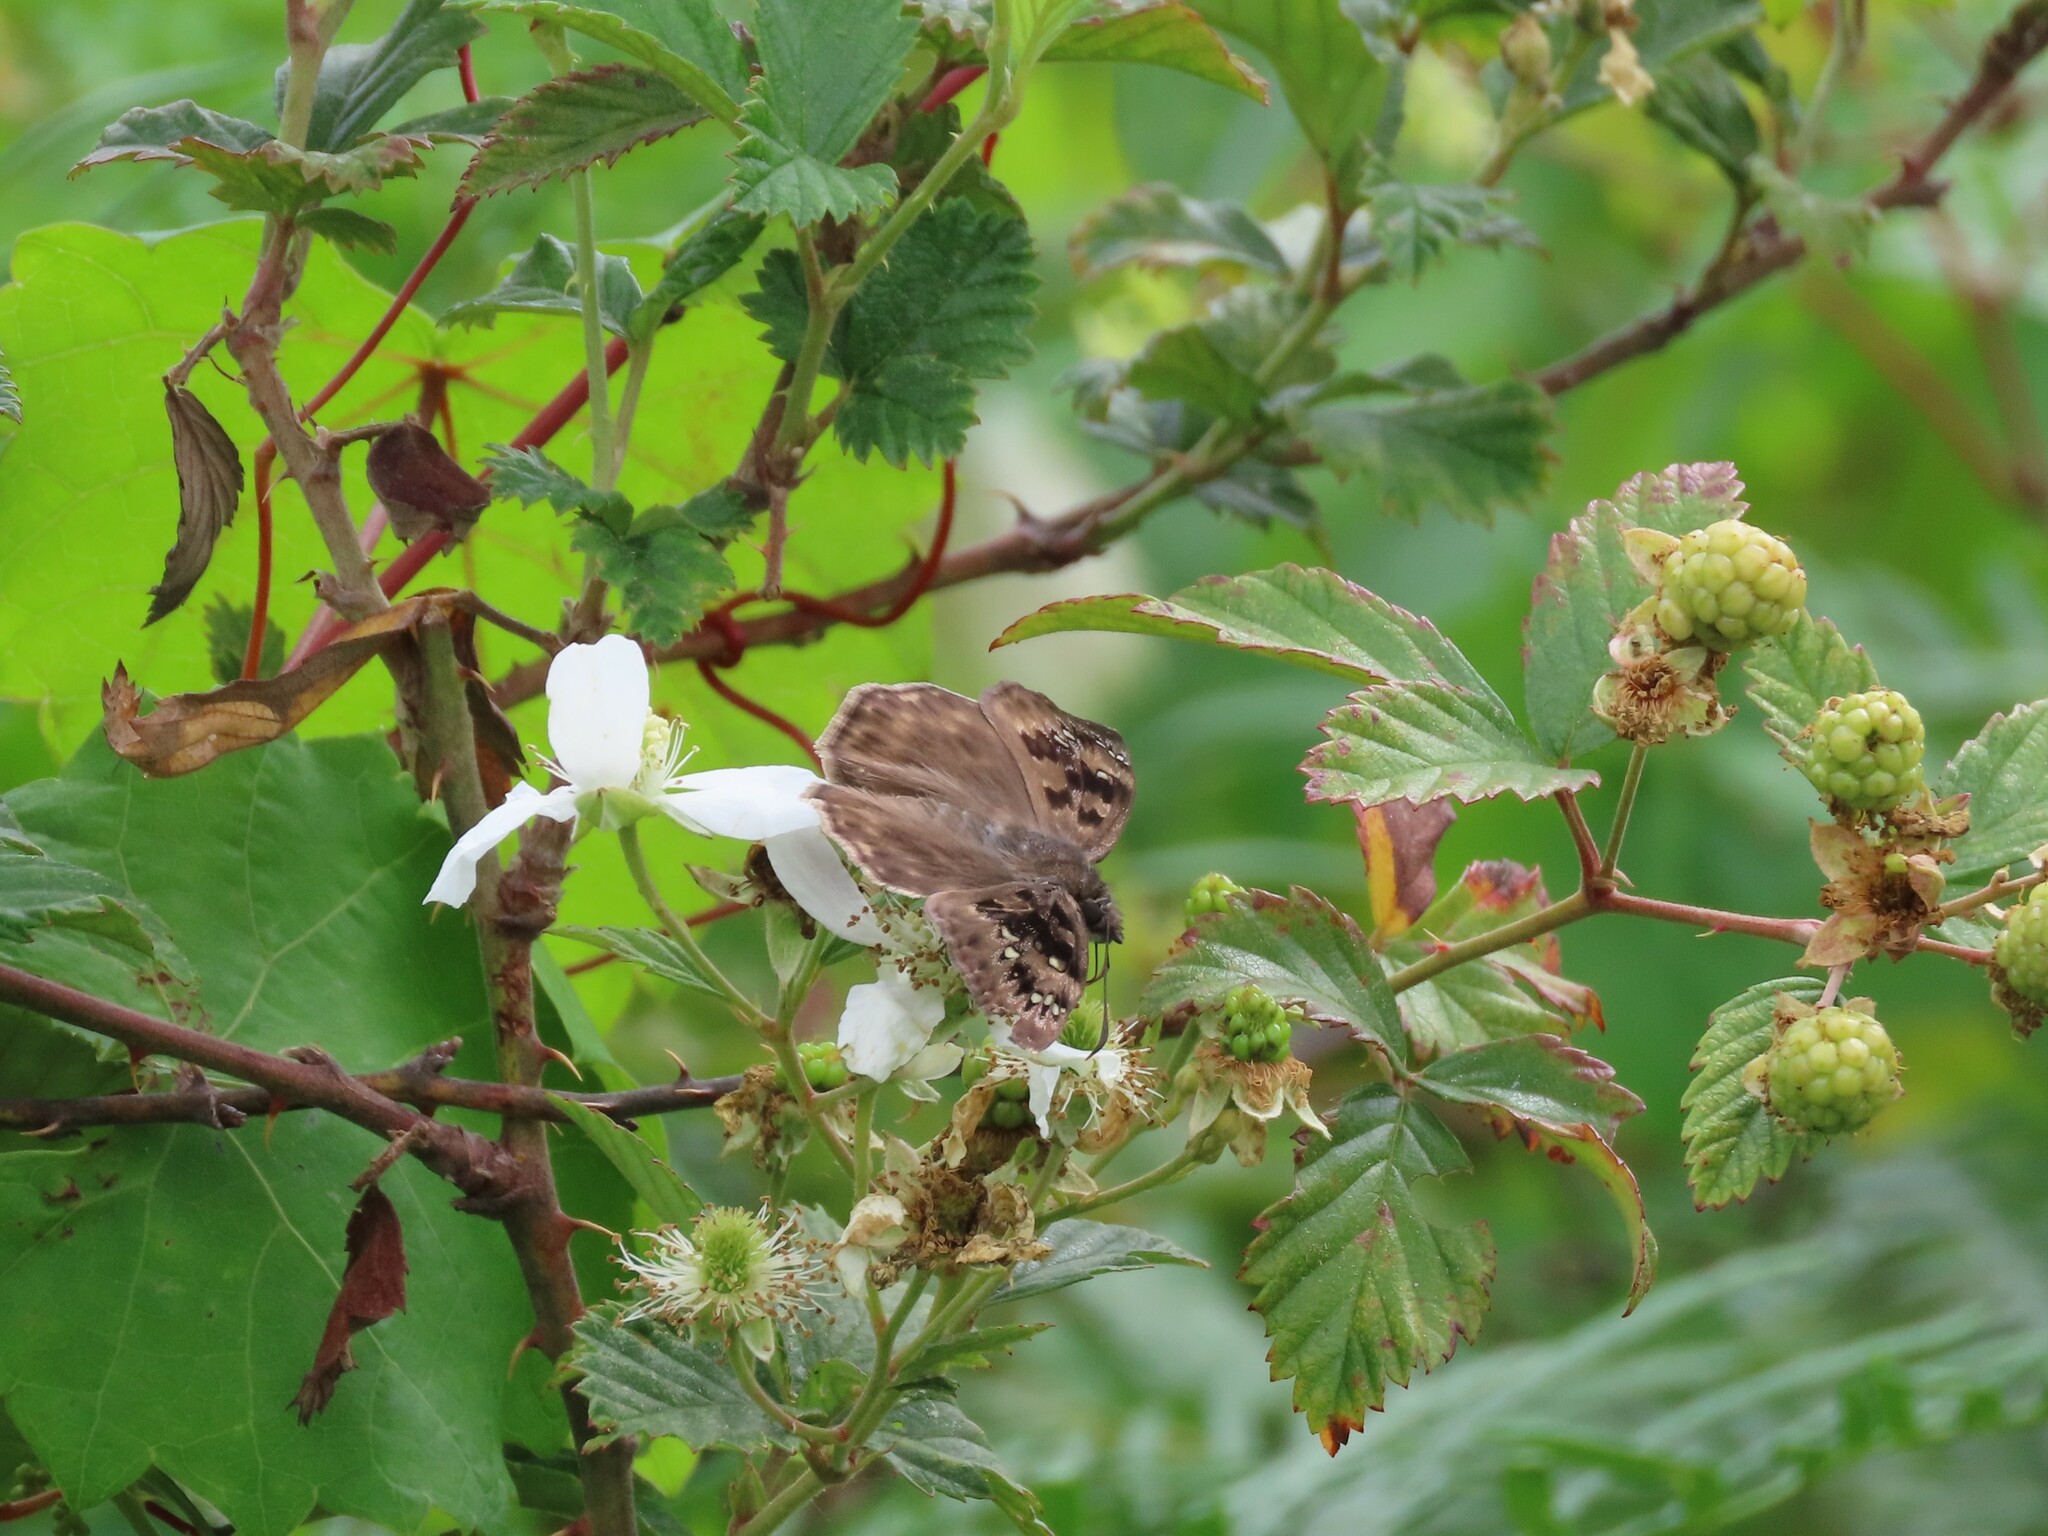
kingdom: Animalia
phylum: Arthropoda
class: Insecta
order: Lepidoptera
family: Hesperiidae
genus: Erynnis
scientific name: Erynnis horatius
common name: Horace's duskywing
